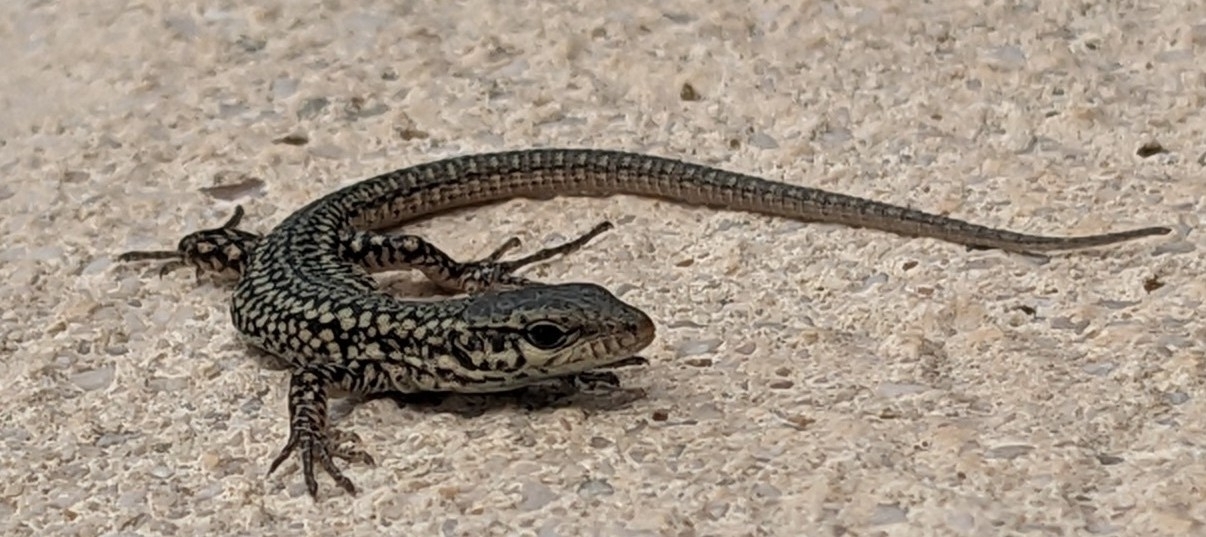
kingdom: Animalia
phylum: Chordata
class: Squamata
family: Lacertidae
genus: Podarcis
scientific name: Podarcis liolepis
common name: Catalonian wall lizard
